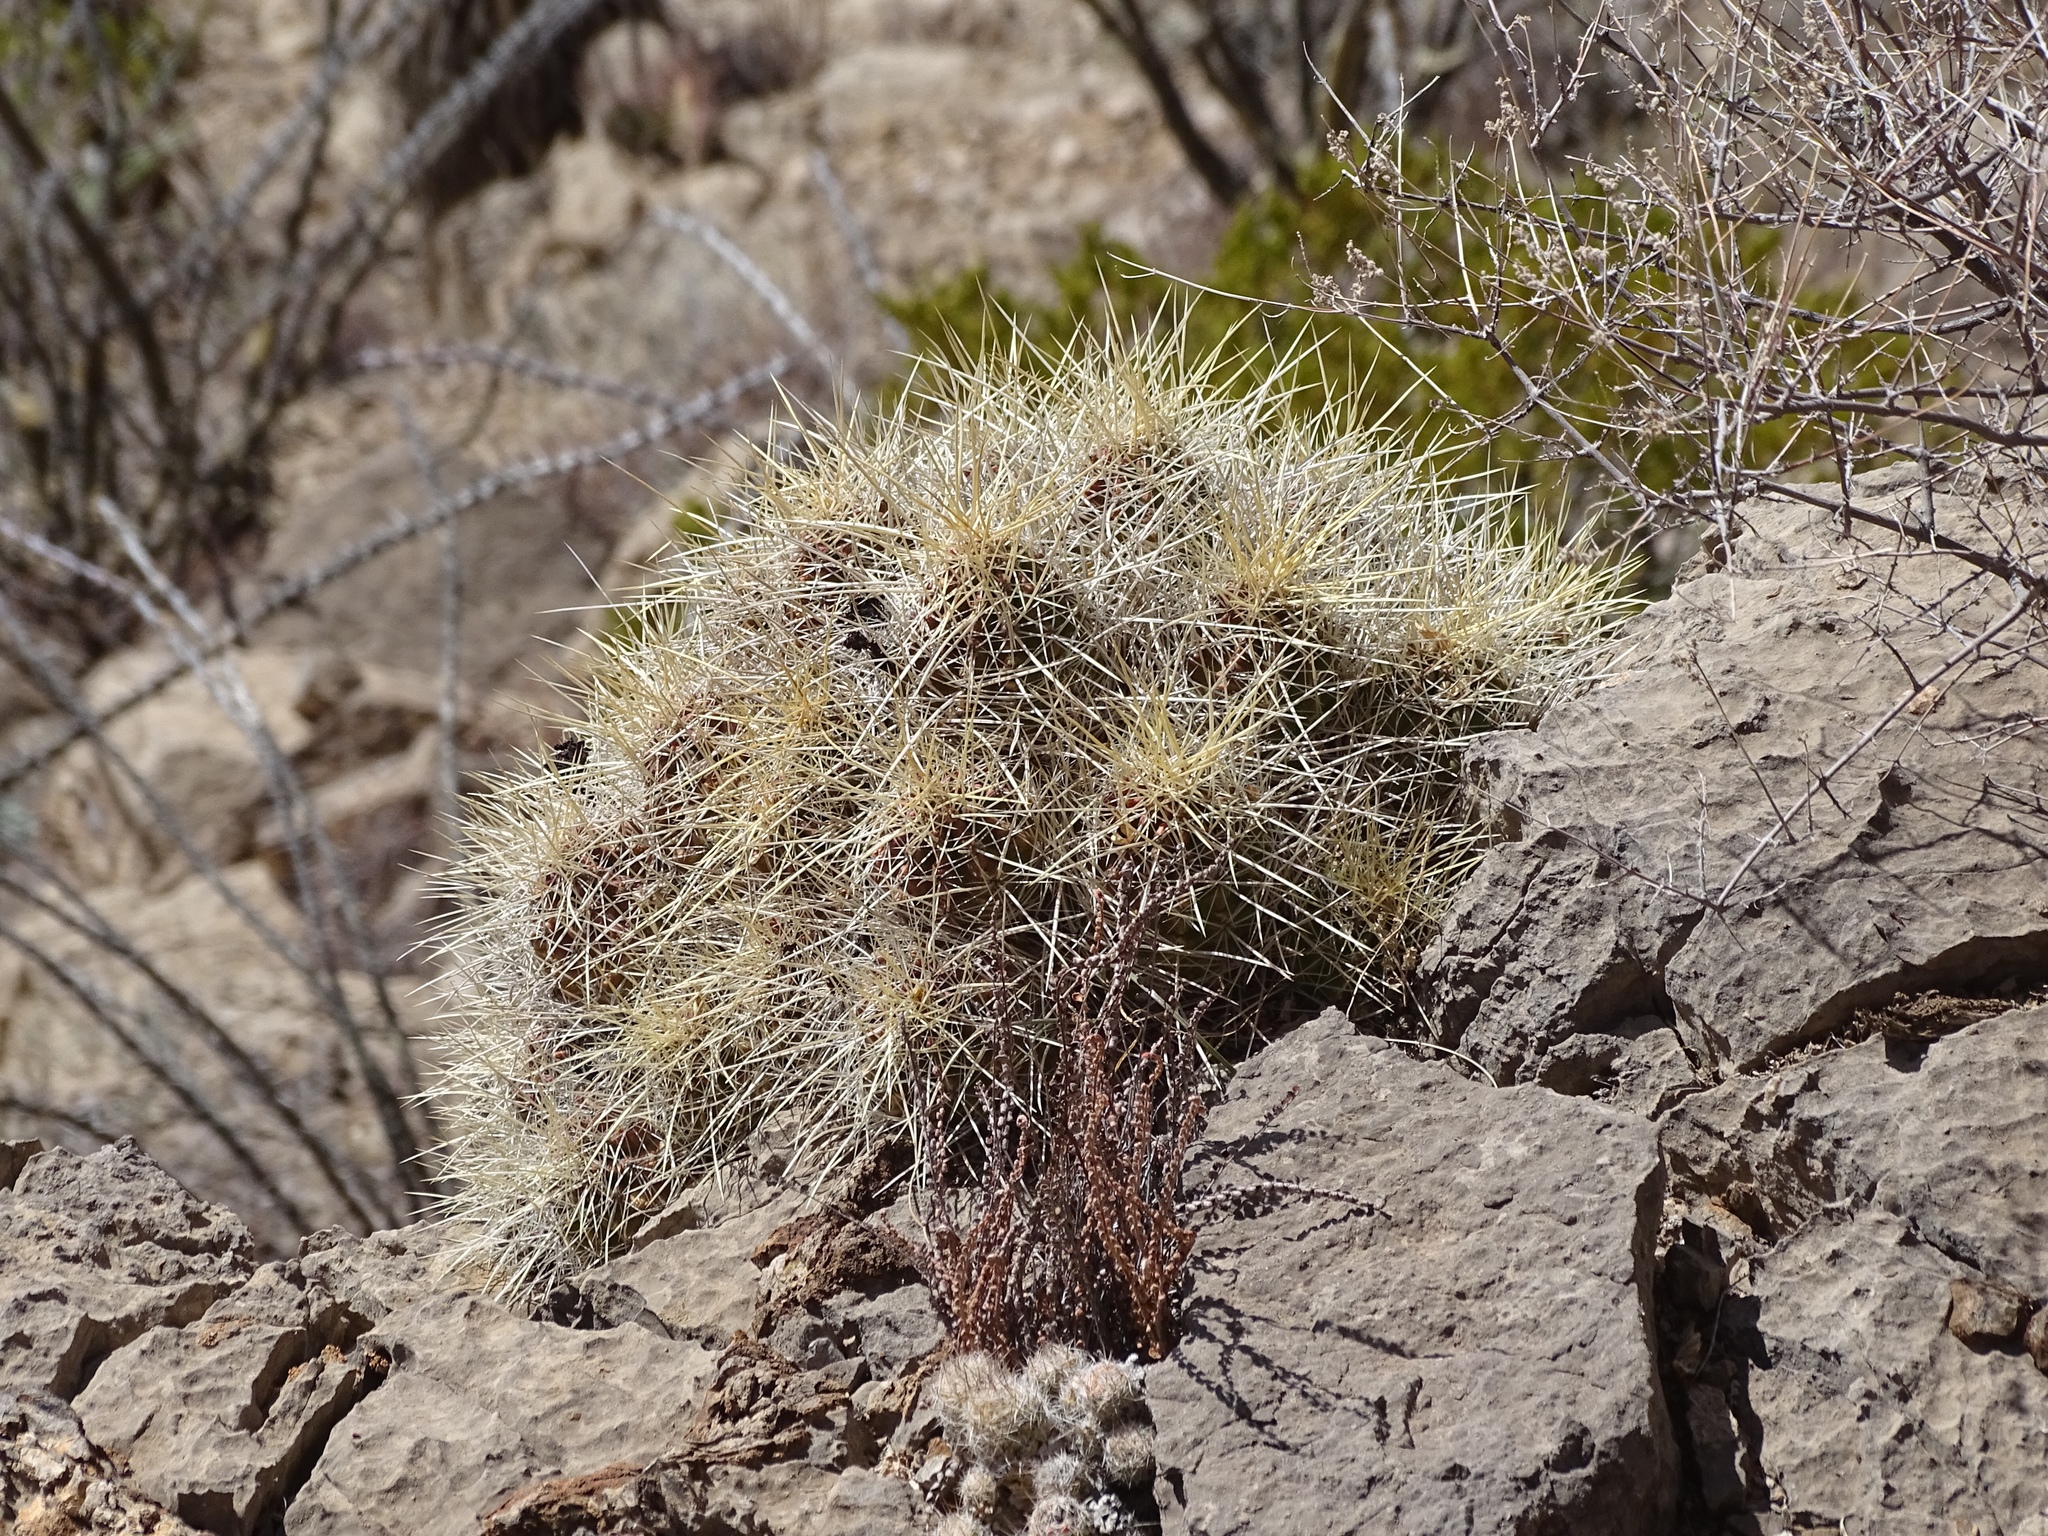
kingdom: Plantae
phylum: Tracheophyta
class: Magnoliopsida
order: Caryophyllales
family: Cactaceae
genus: Echinocereus
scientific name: Echinocereus stramineus
